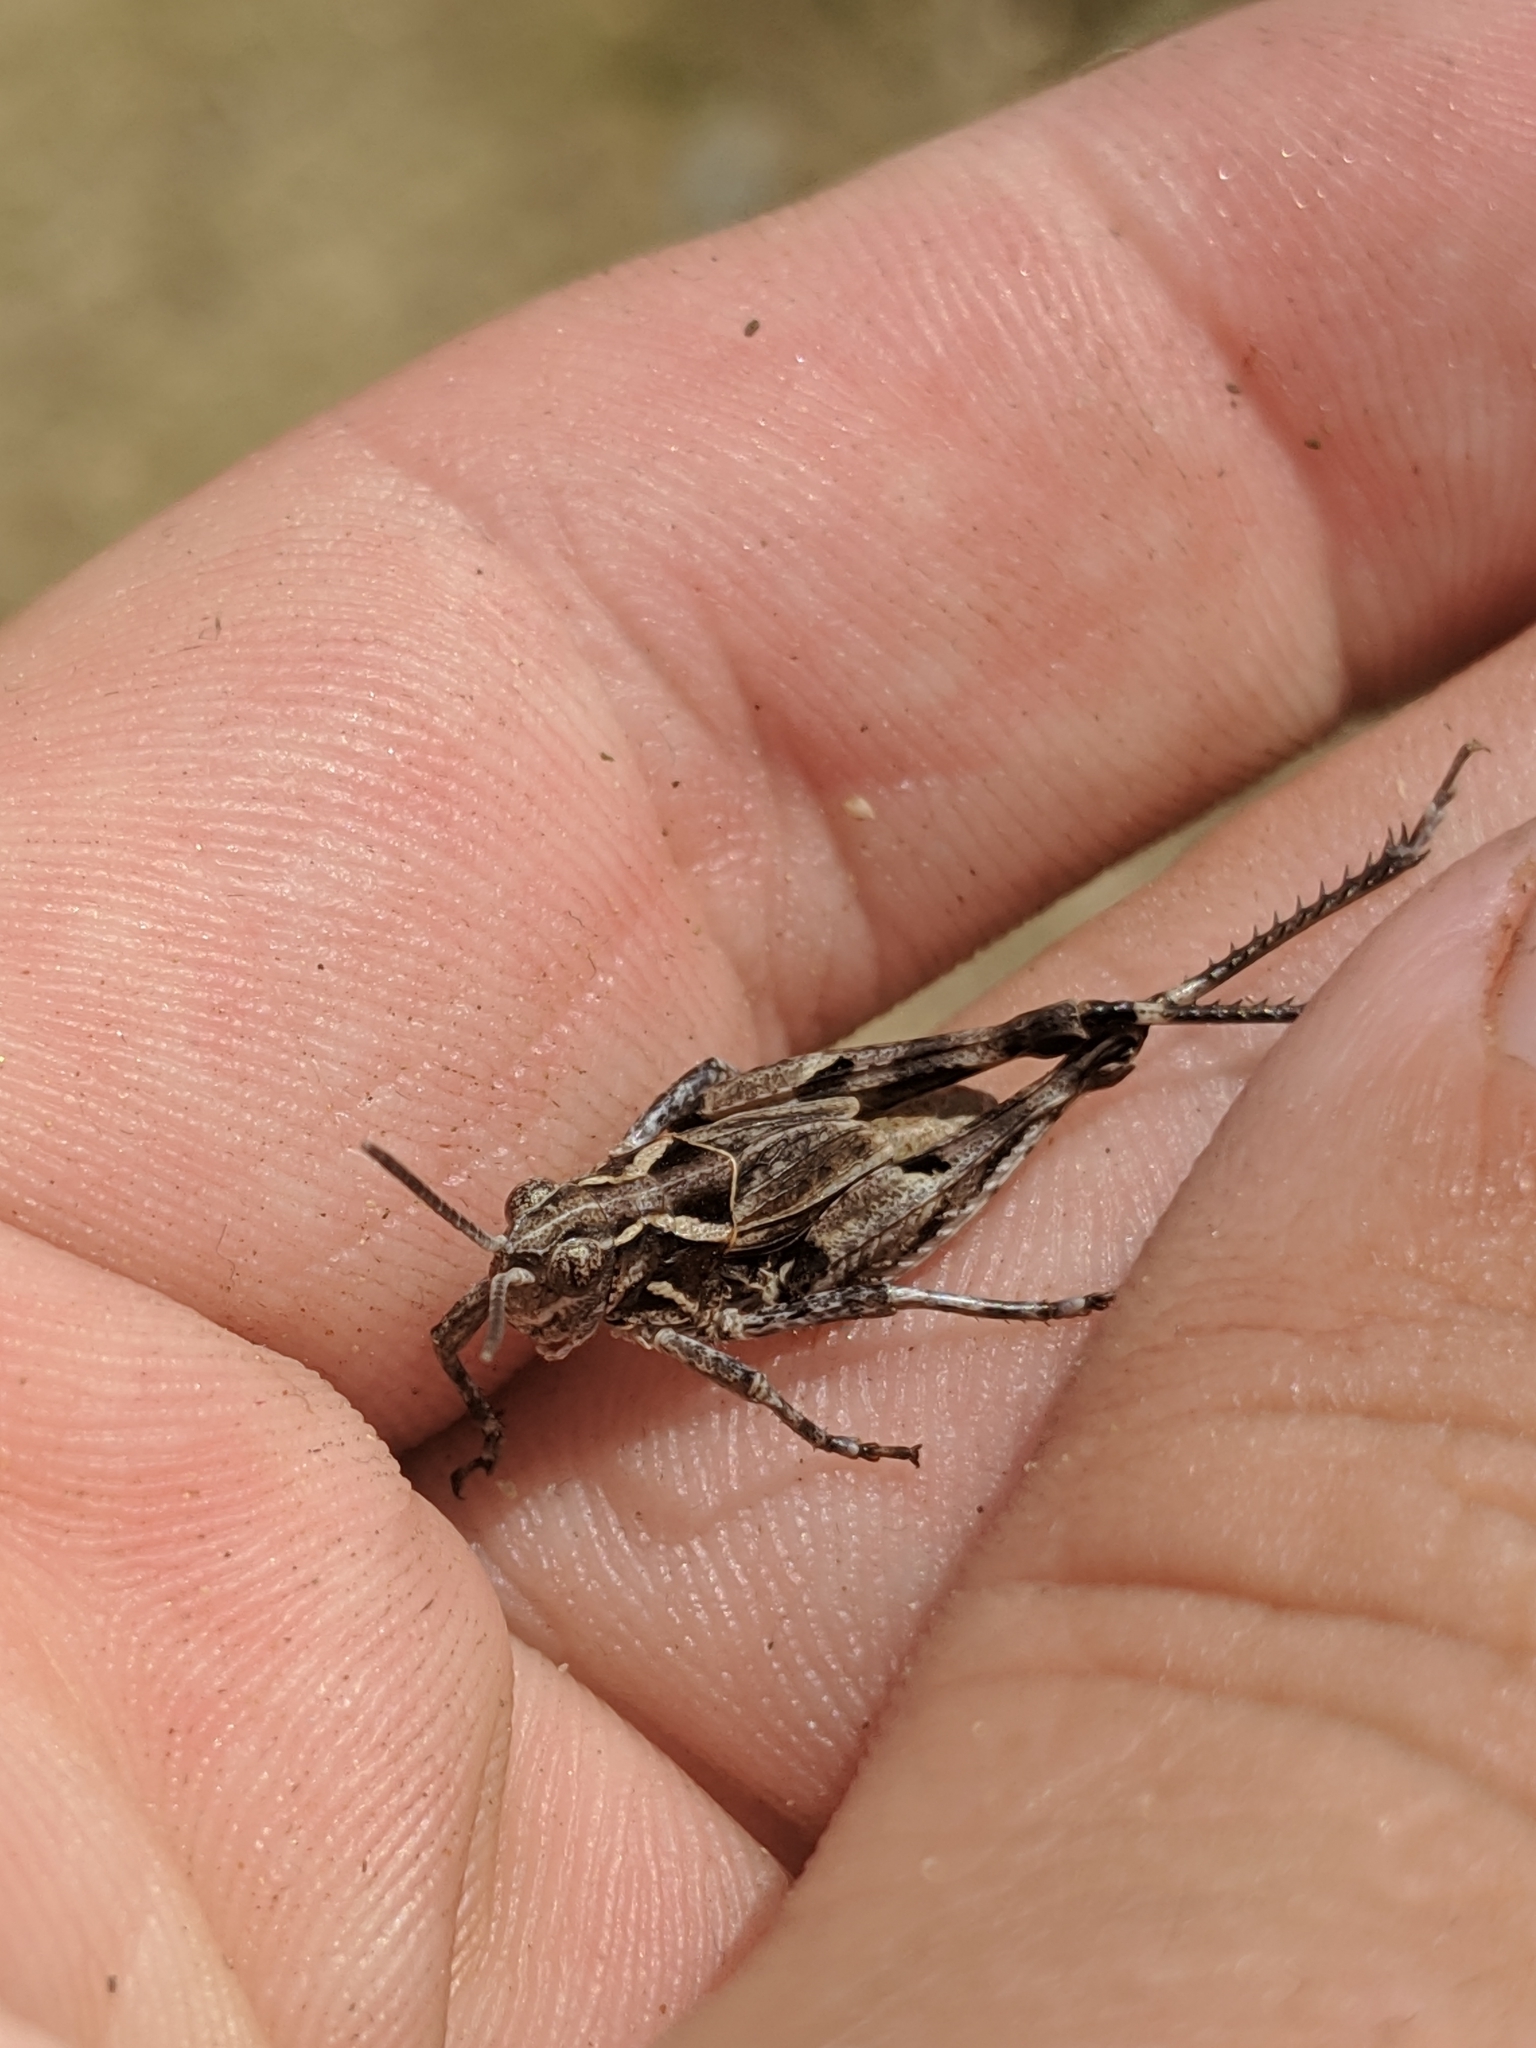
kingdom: Animalia
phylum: Arthropoda
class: Insecta
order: Orthoptera
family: Acrididae
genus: Esselenia
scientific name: Esselenia vanduzeei
